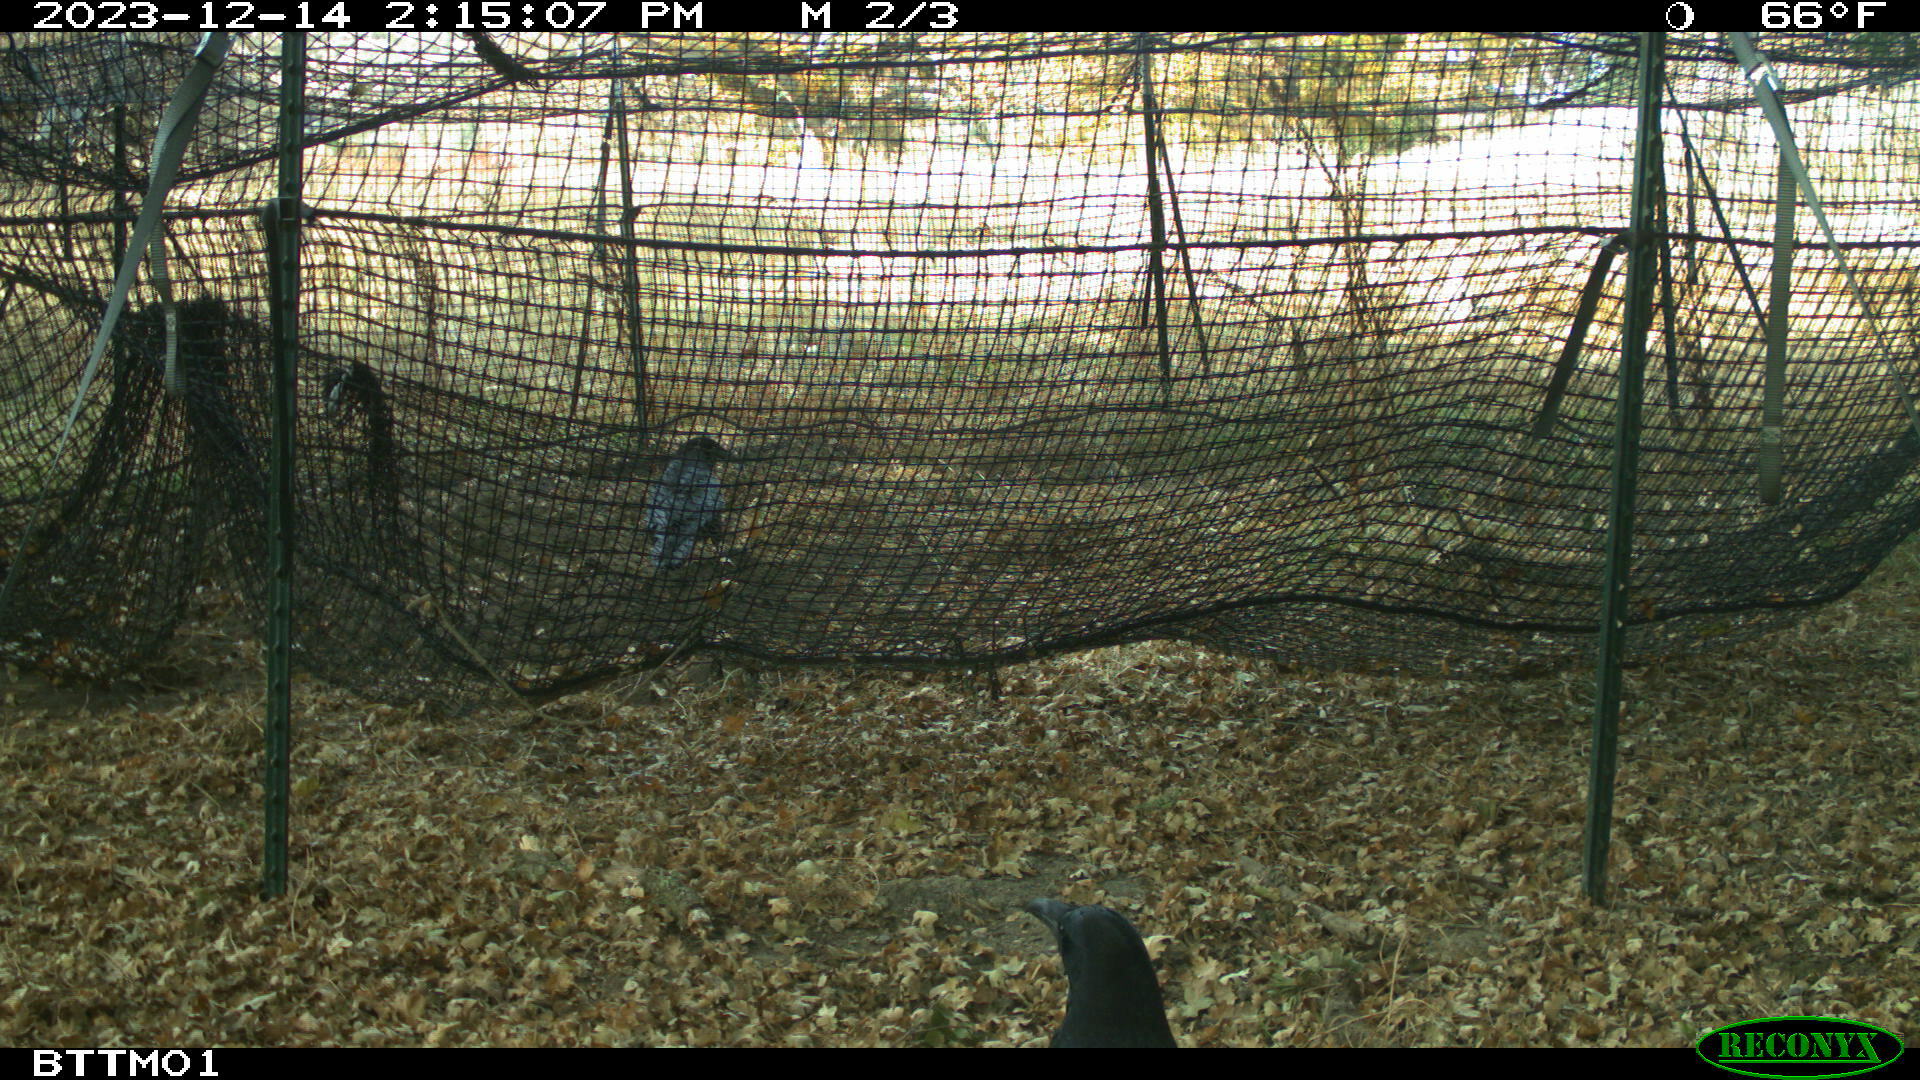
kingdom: Animalia
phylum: Chordata
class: Aves
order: Passeriformes
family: Corvidae
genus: Corvus
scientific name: Corvus corax
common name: Common raven
